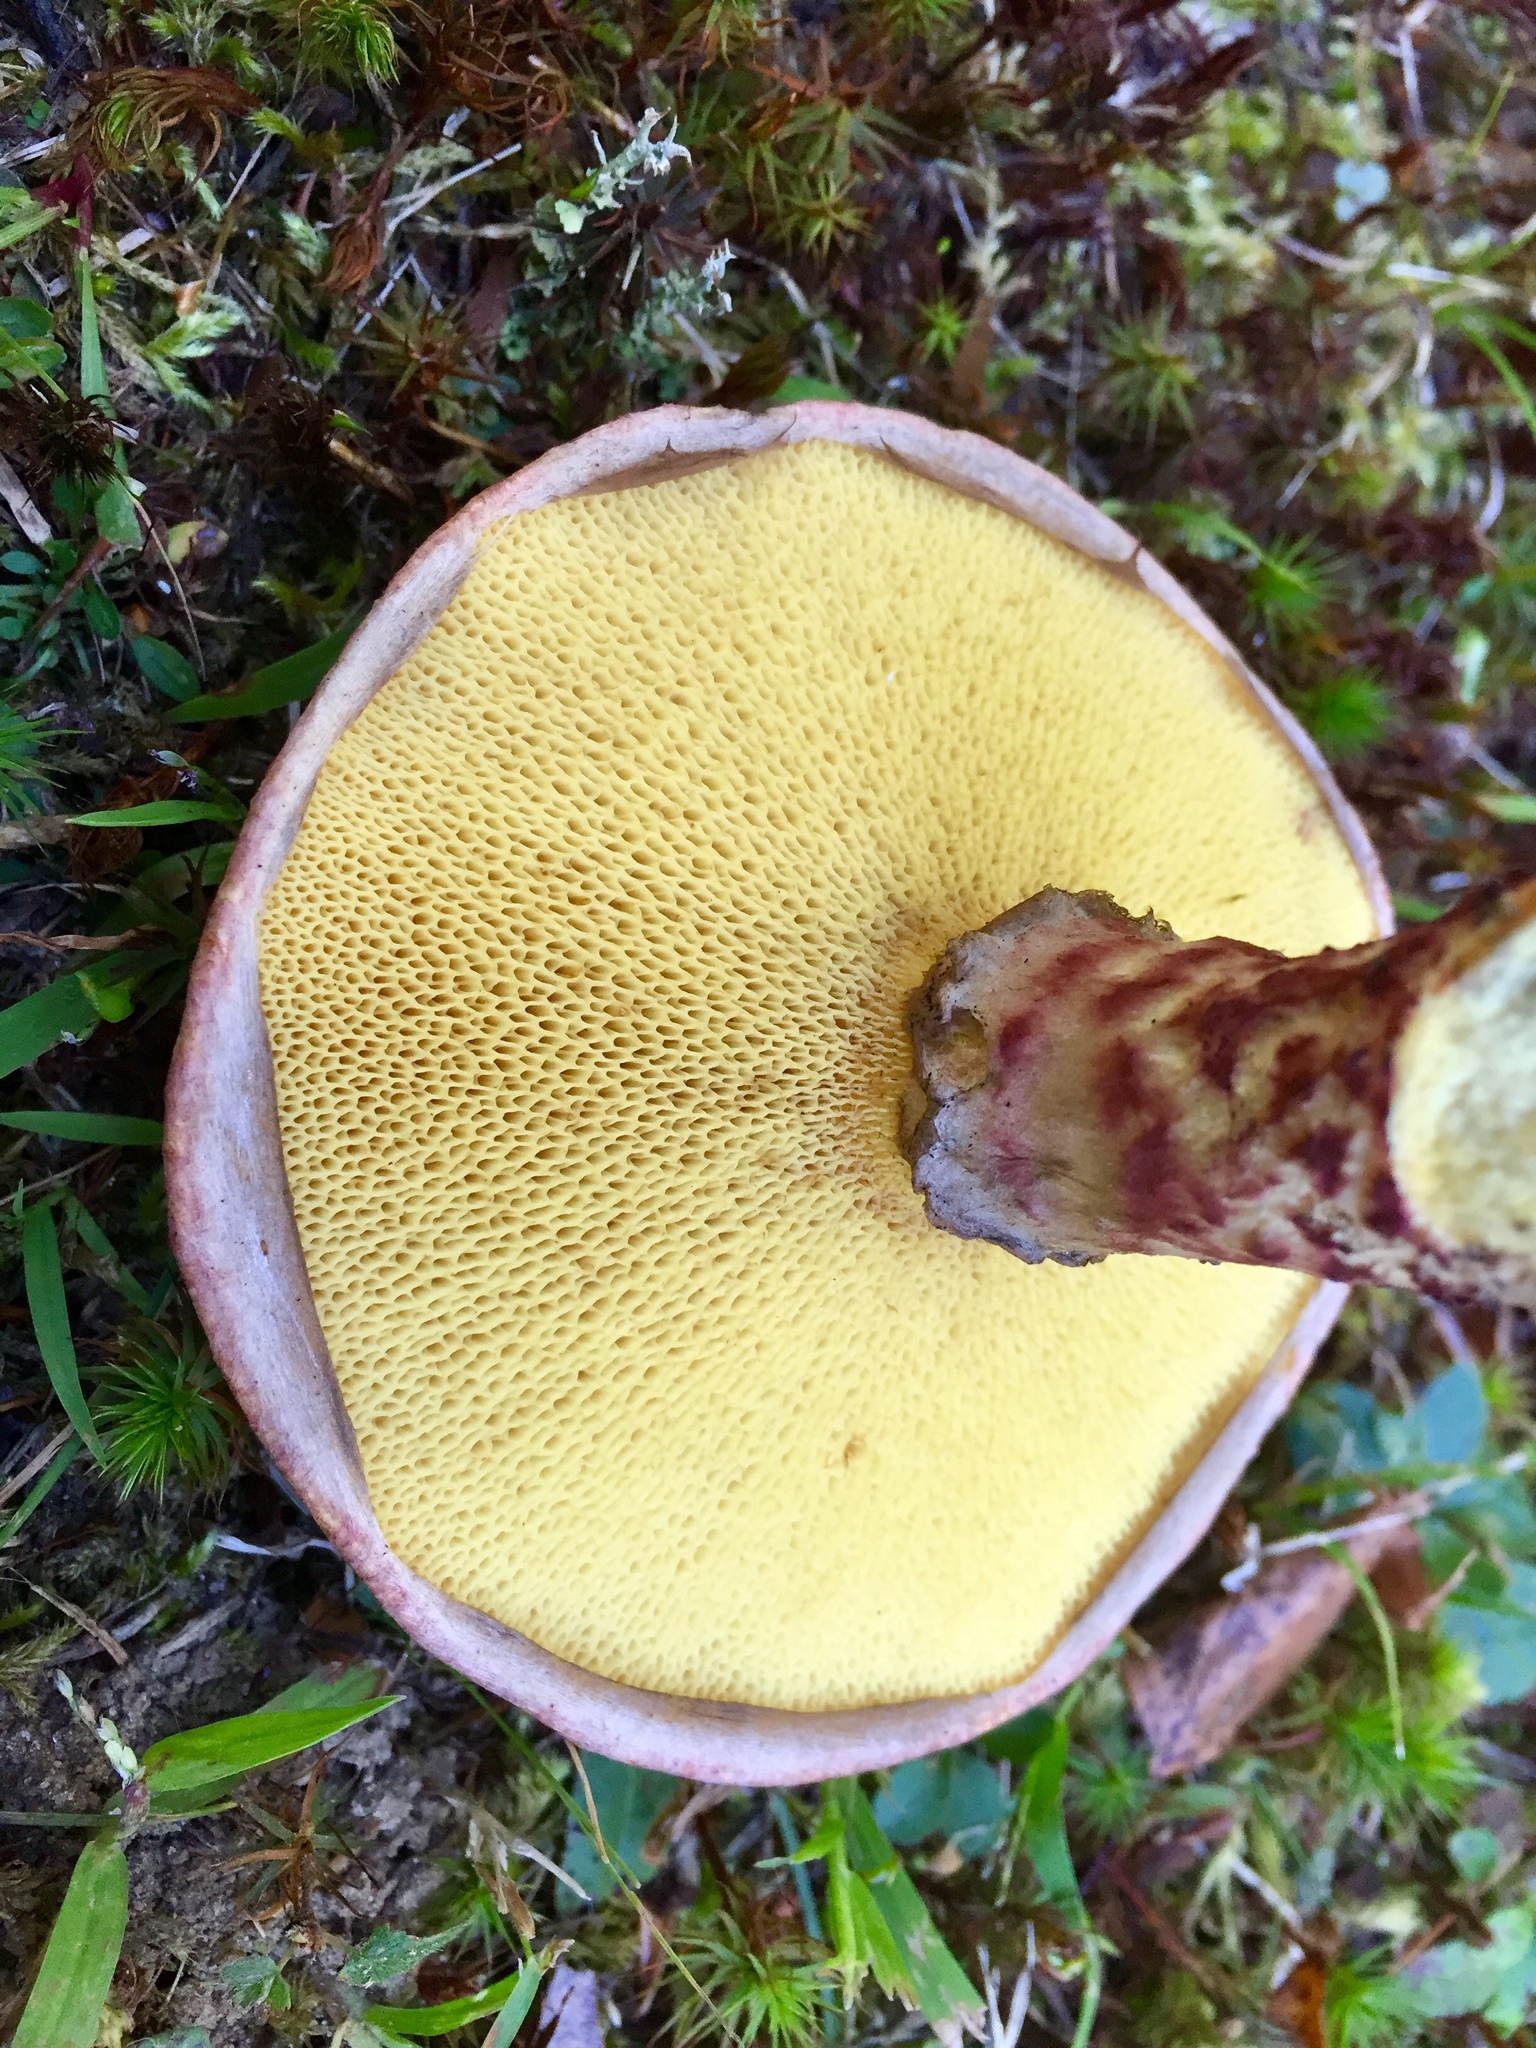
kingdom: Fungi
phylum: Basidiomycota
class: Agaricomycetes
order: Boletales
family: Suillaceae
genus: Suillus
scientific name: Suillus spraguei
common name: Painted suillus
